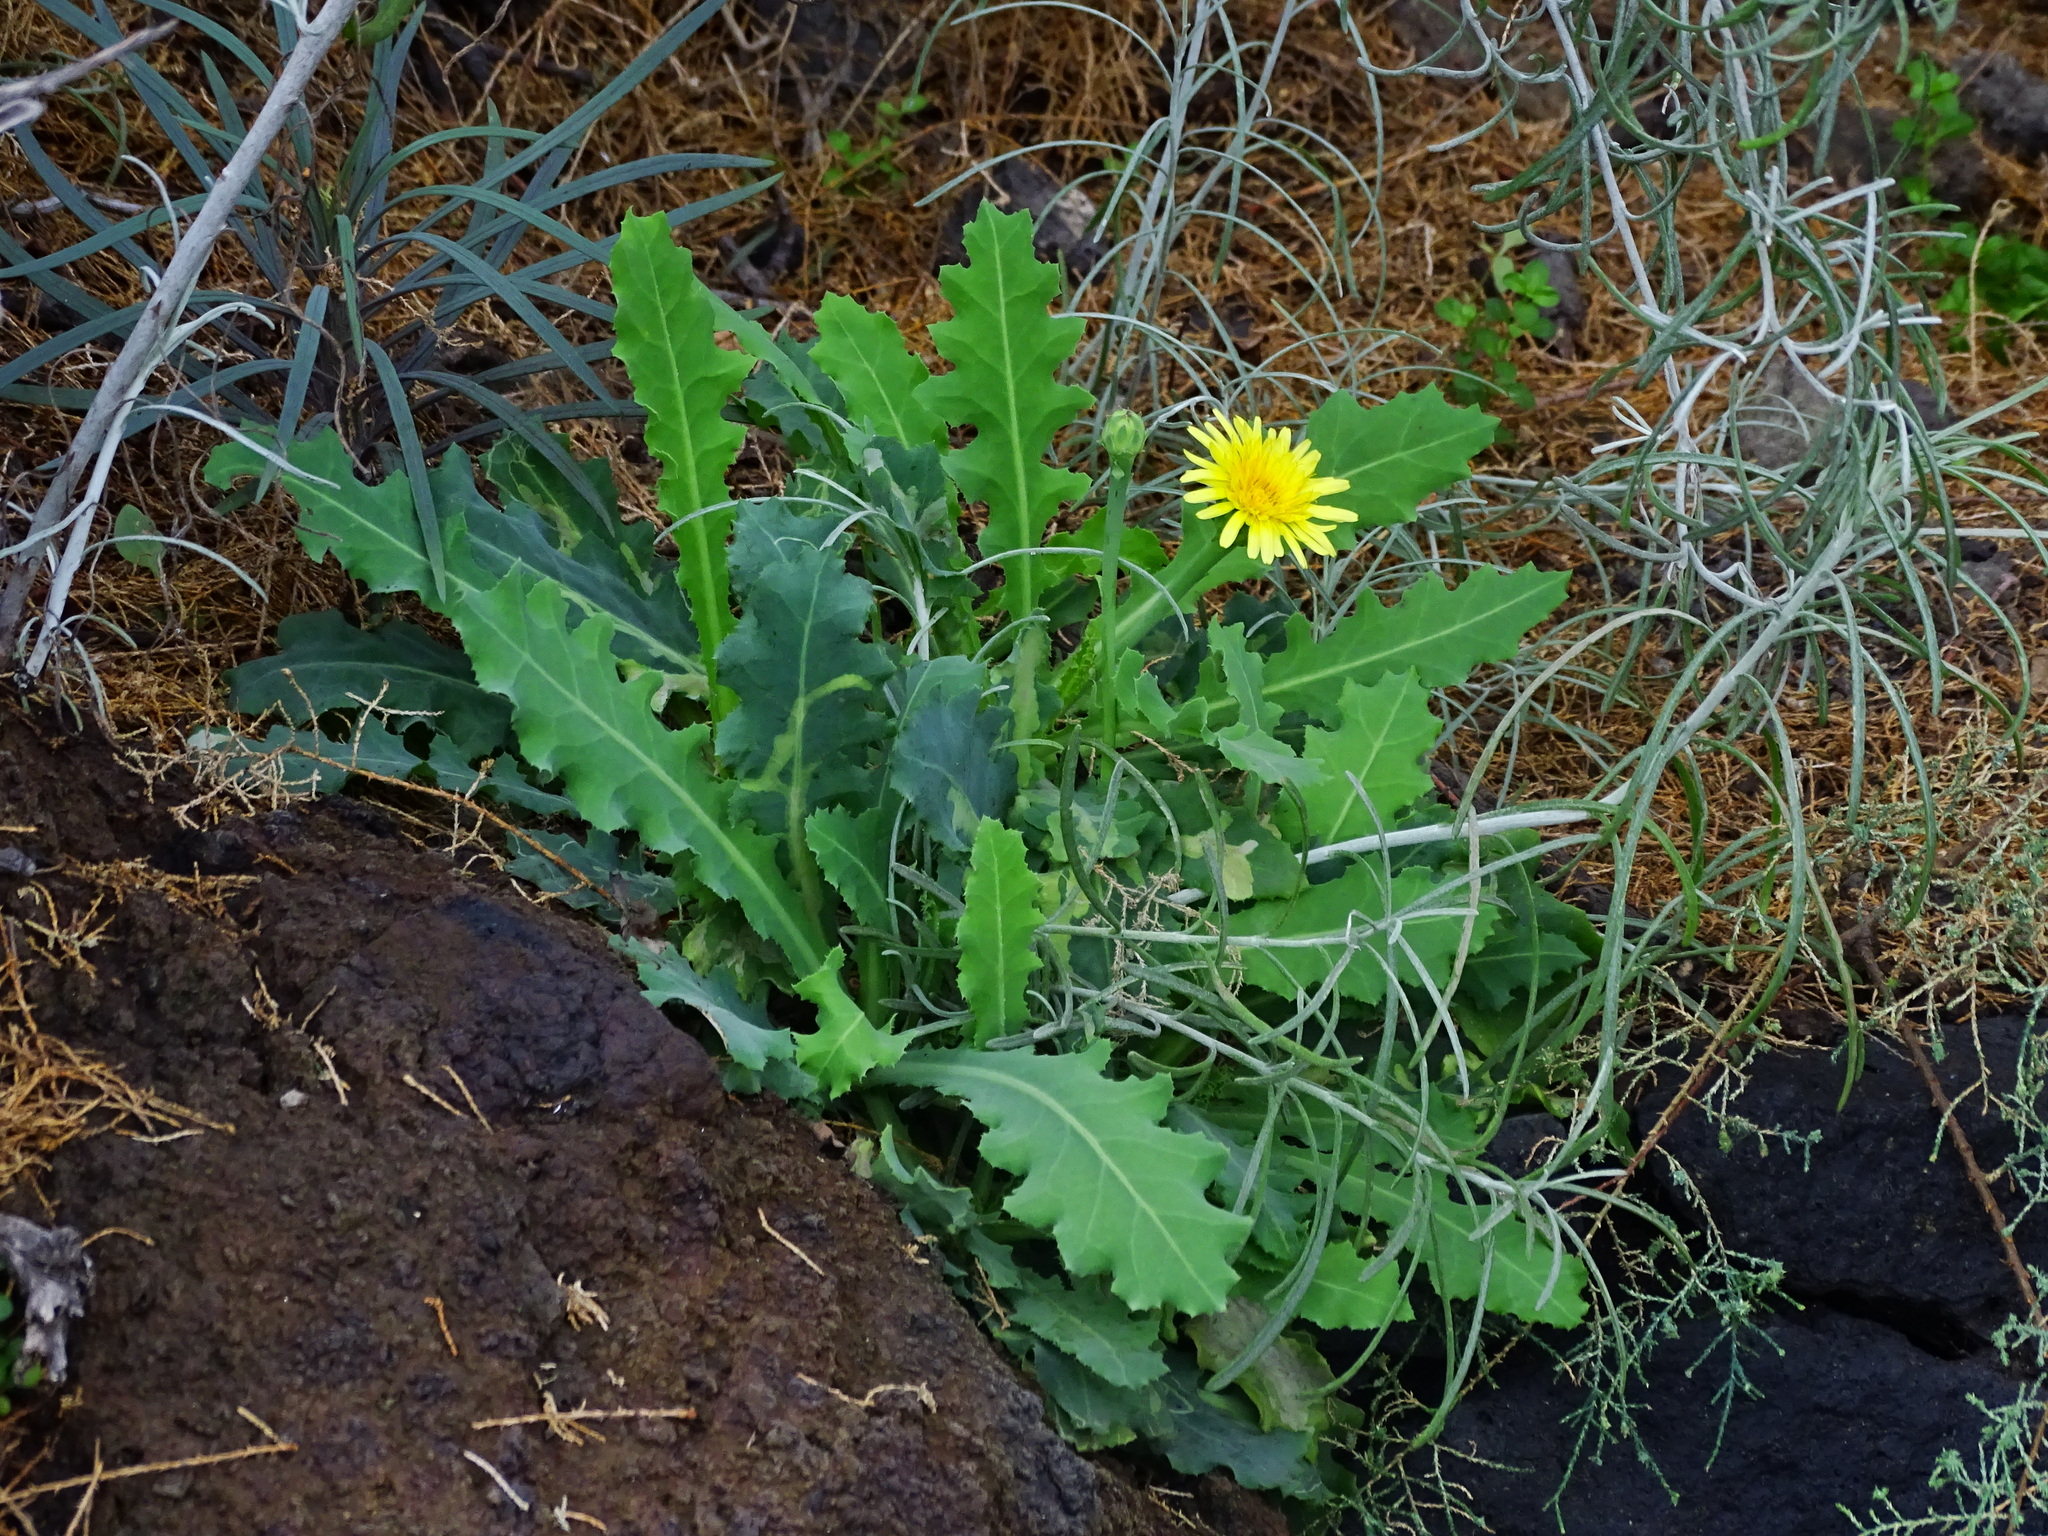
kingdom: Plantae
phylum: Tracheophyta
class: Magnoliopsida
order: Asterales
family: Asteraceae
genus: Reichardia
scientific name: Reichardia ligulata
